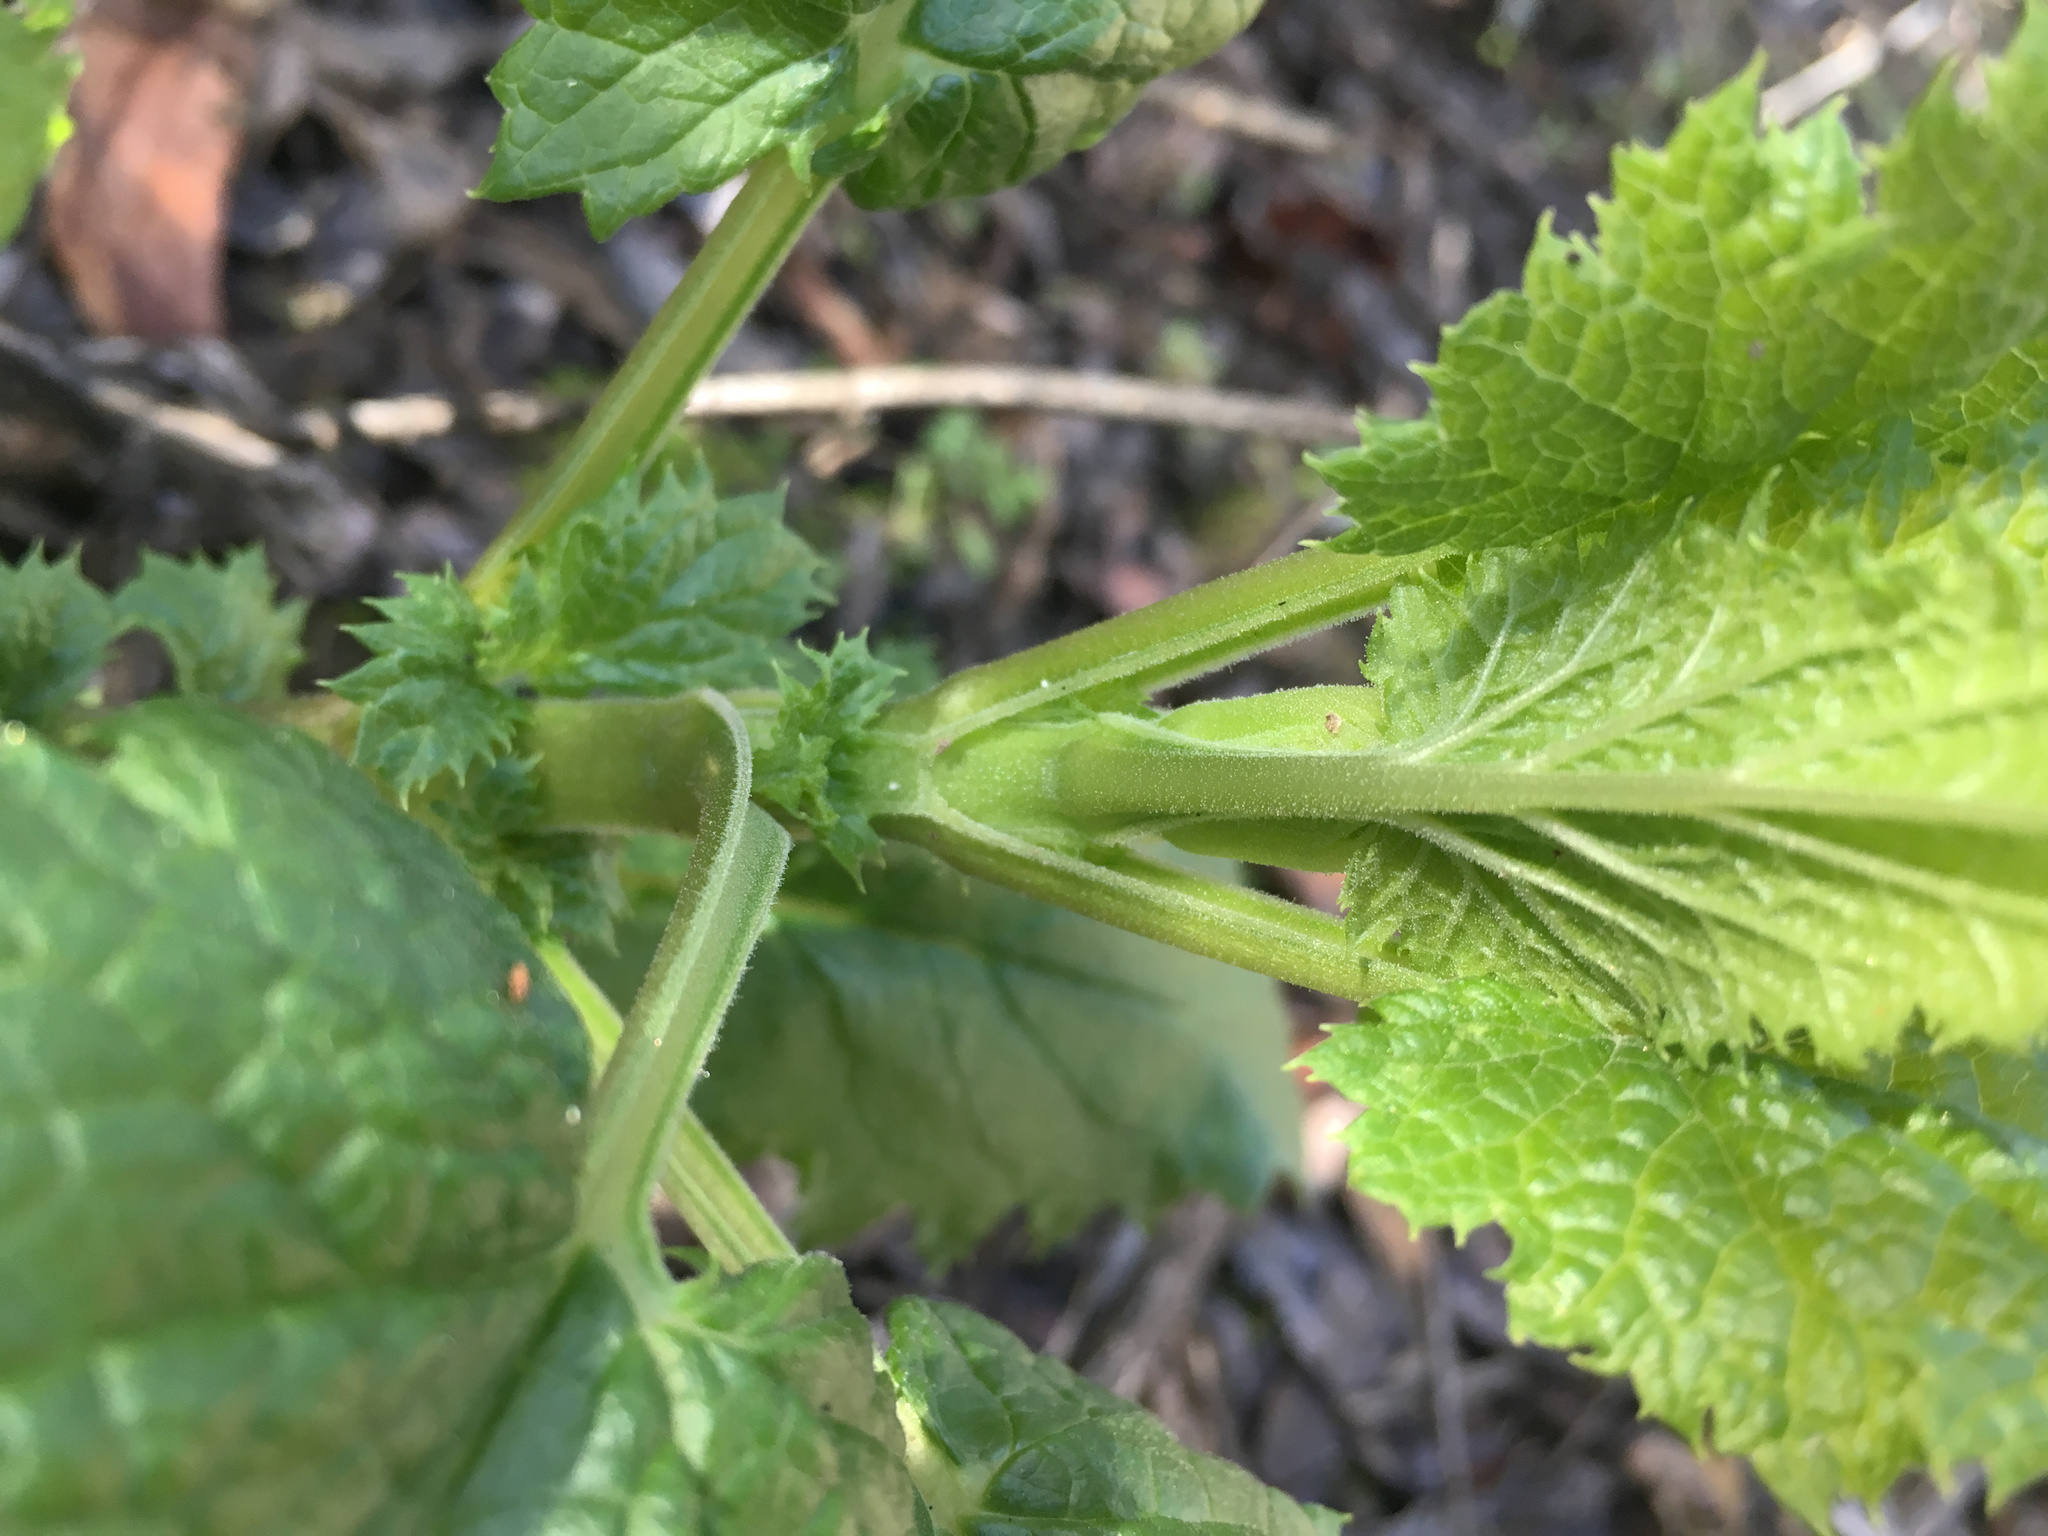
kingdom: Plantae
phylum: Tracheophyta
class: Magnoliopsida
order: Lamiales
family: Scrophulariaceae
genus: Scrophularia
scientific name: Scrophularia californica
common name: California figwort
